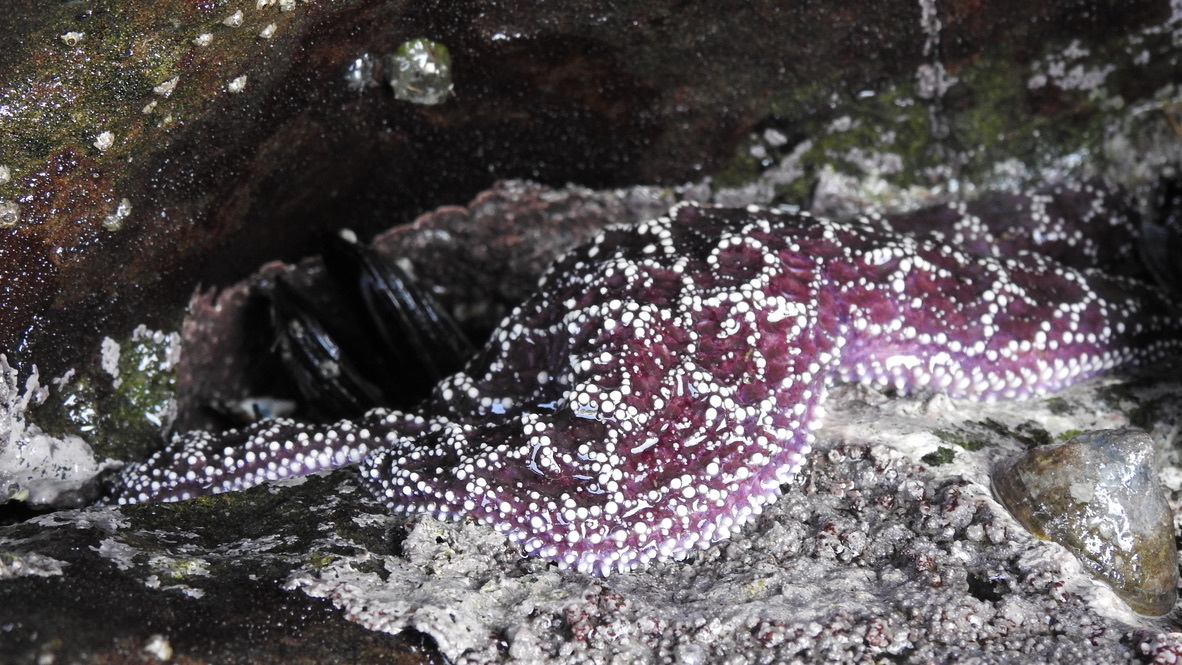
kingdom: Animalia
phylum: Echinodermata
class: Asteroidea
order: Forcipulatida
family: Asteriidae
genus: Pisaster
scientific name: Pisaster ochraceus
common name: Ochre stars
